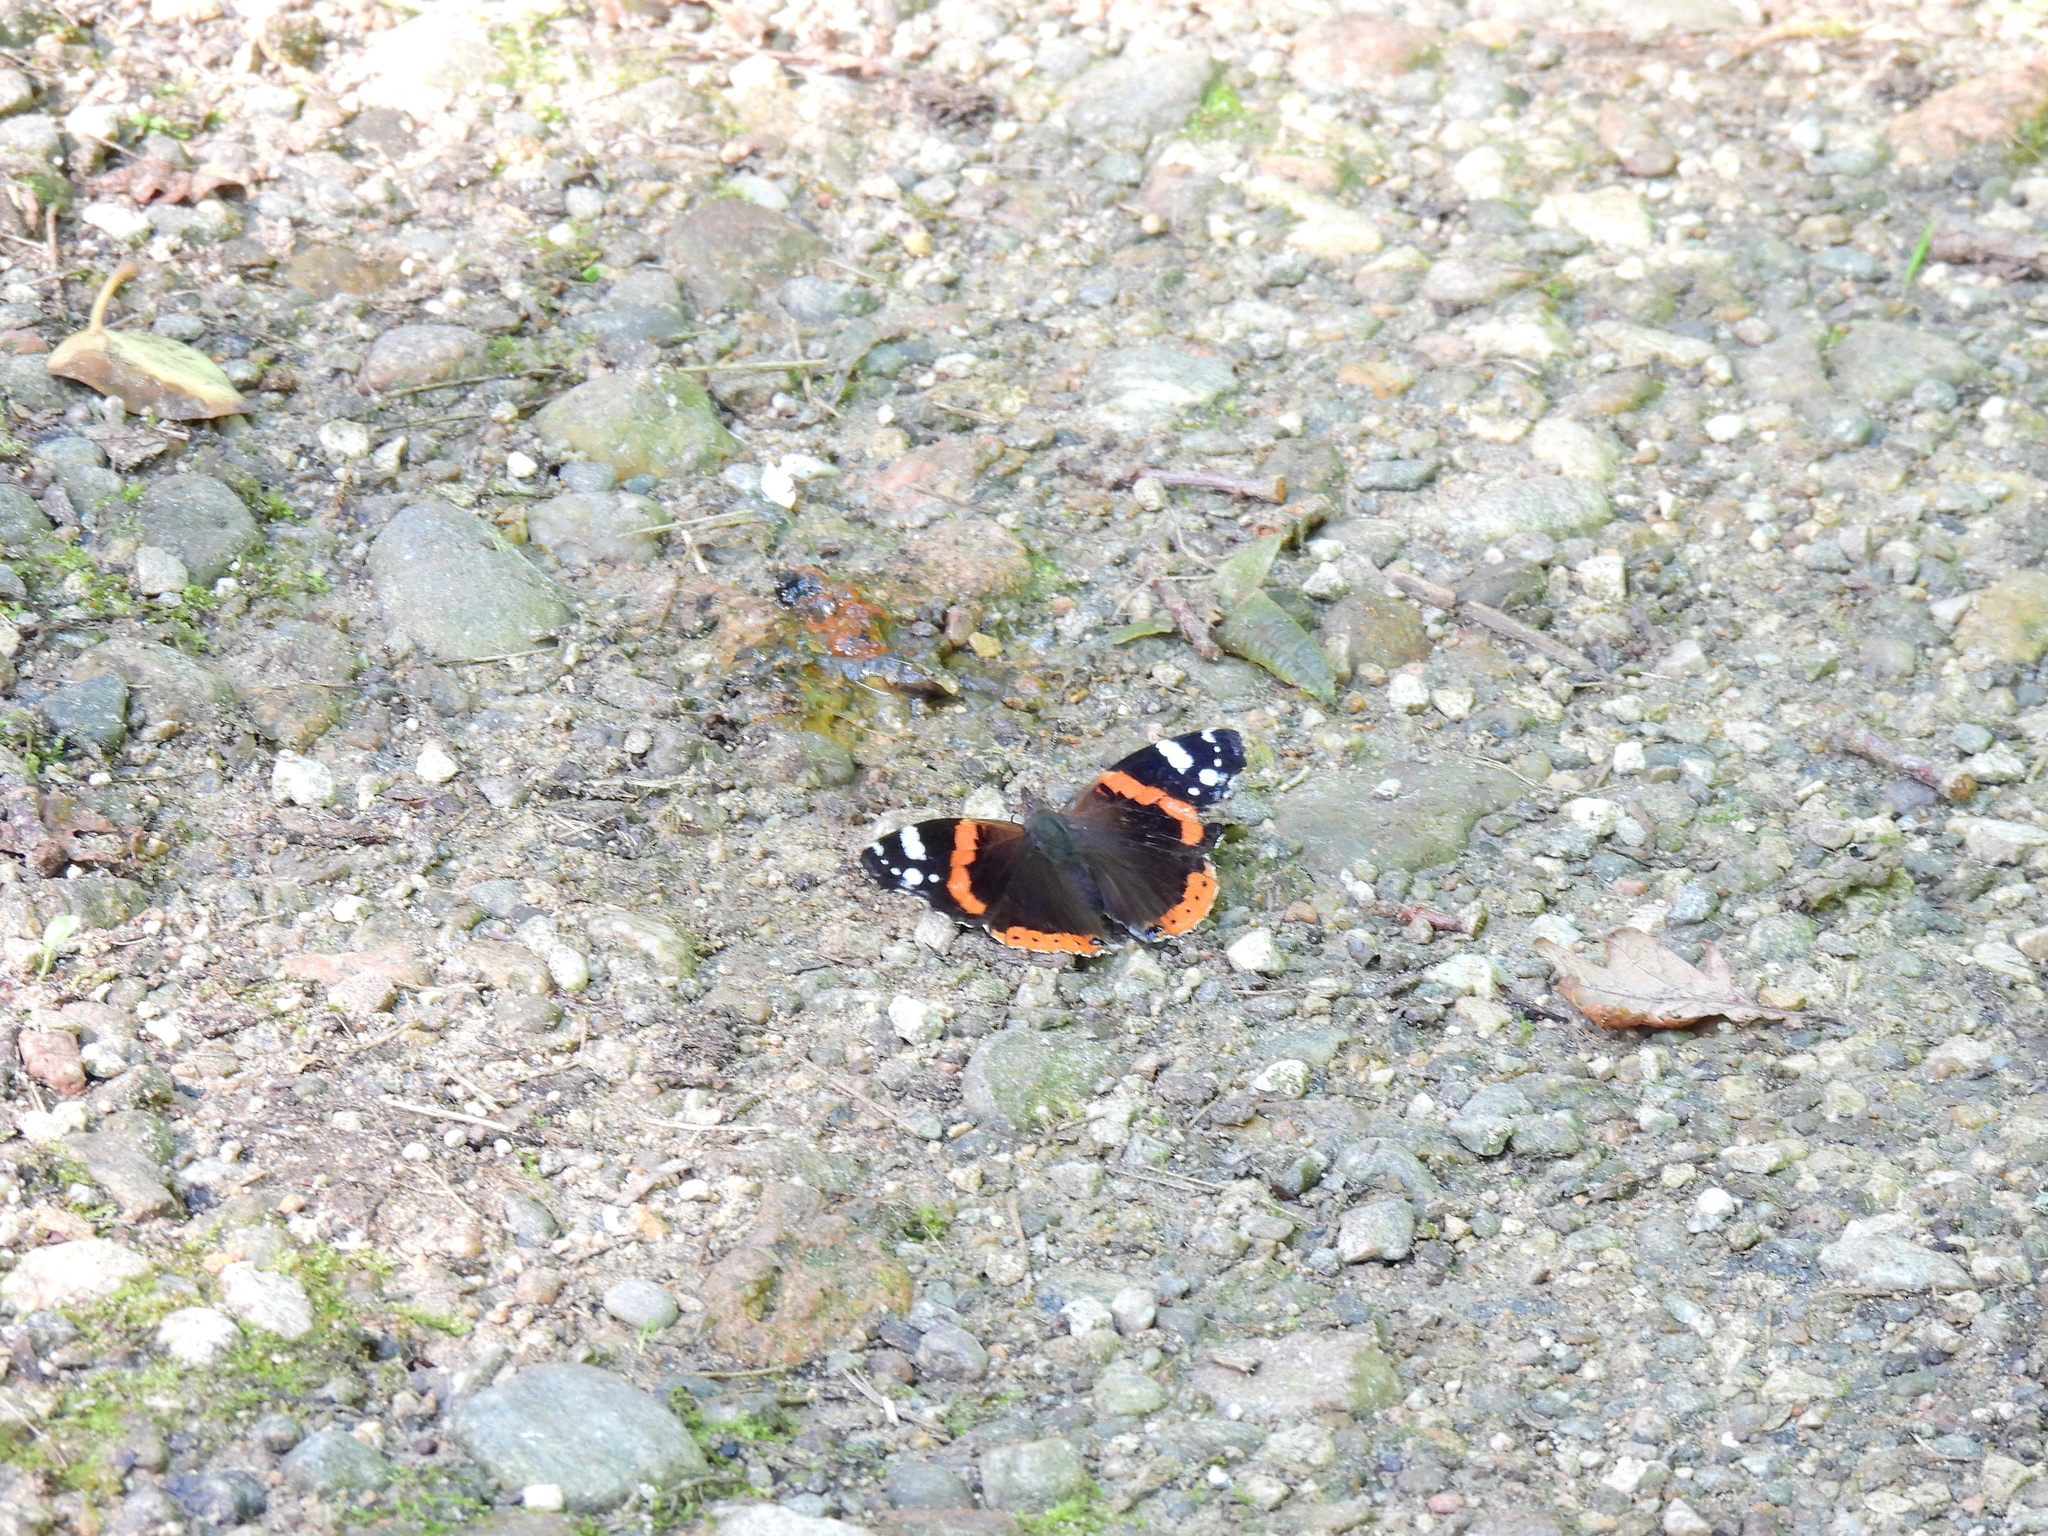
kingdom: Animalia
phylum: Arthropoda
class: Insecta
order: Lepidoptera
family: Nymphalidae
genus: Vanessa
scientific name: Vanessa atalanta
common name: Red admiral
